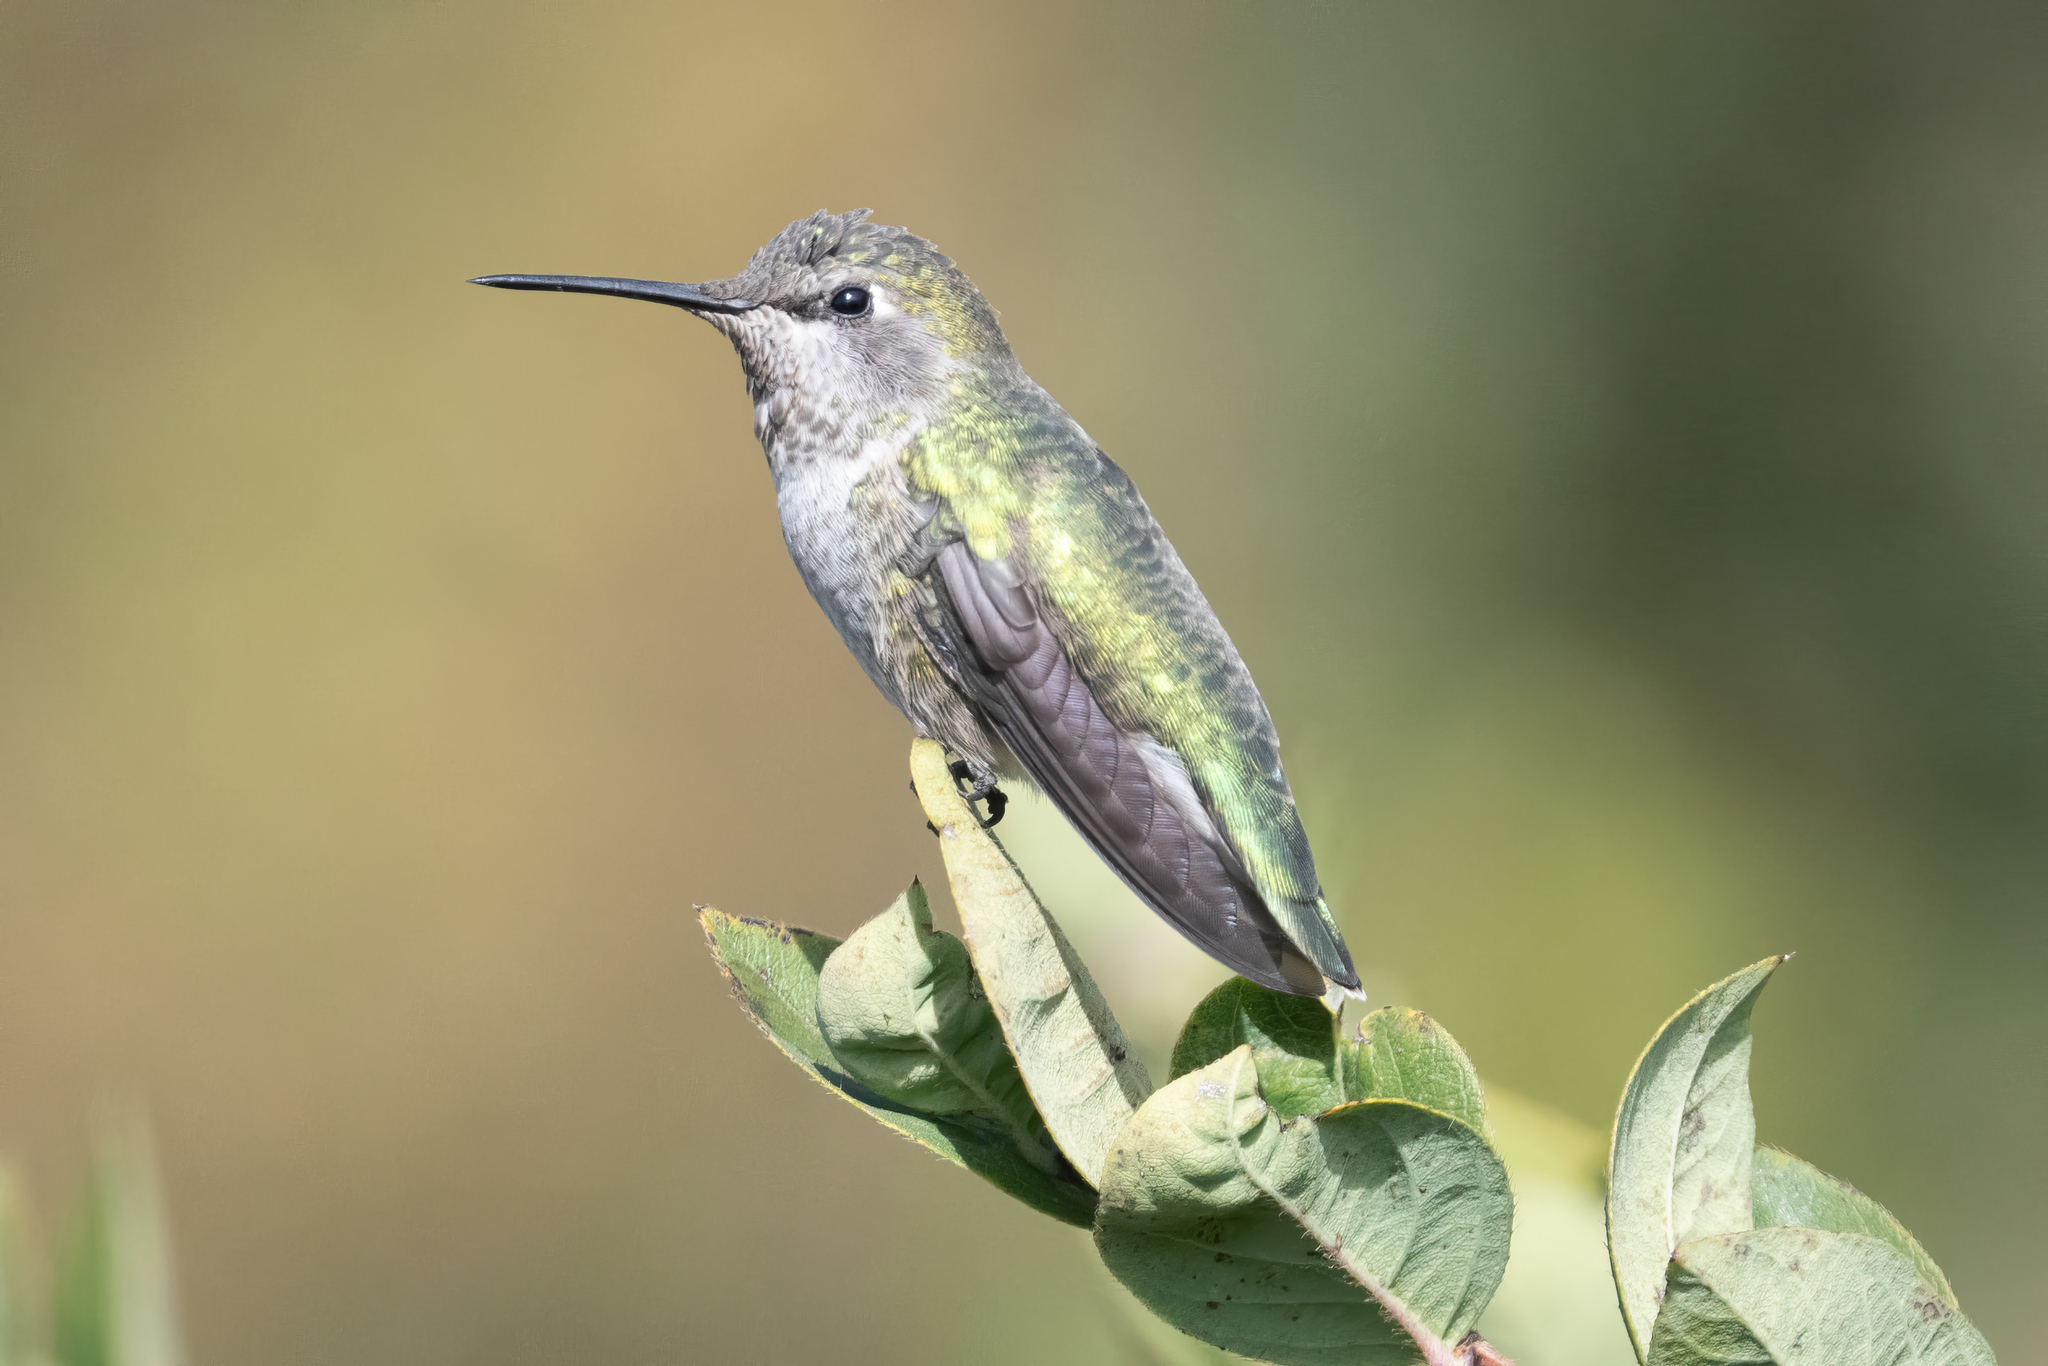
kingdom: Animalia
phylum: Chordata
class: Aves
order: Apodiformes
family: Trochilidae
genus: Calypte
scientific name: Calypte anna
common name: Anna's hummingbird
